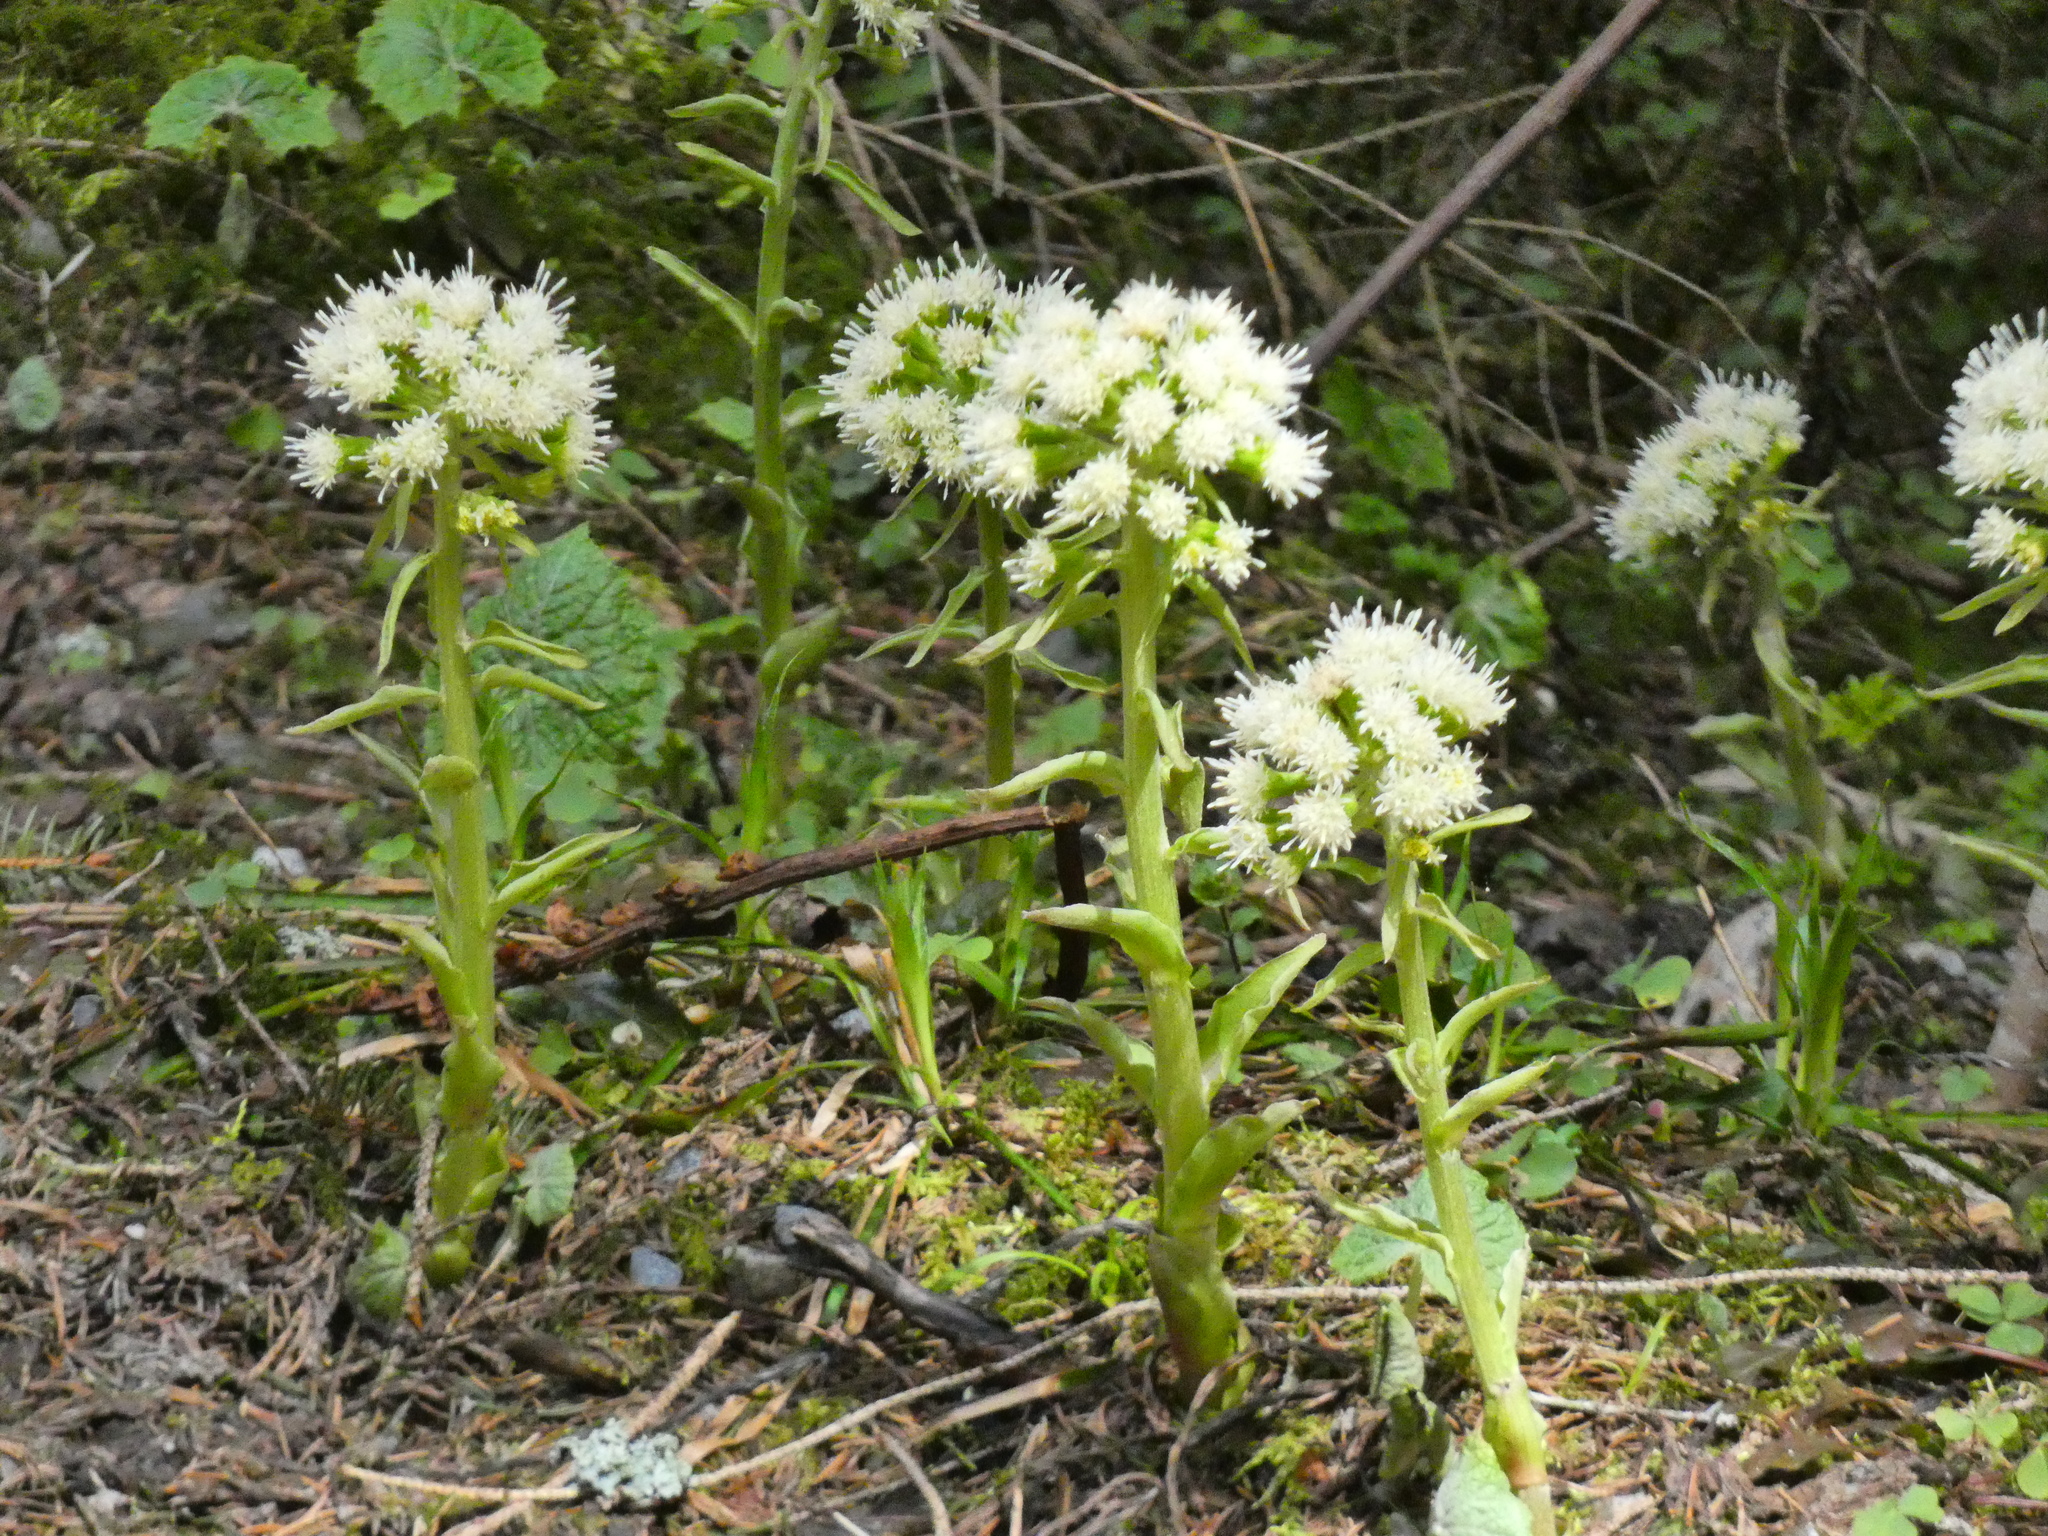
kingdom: Plantae
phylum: Tracheophyta
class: Magnoliopsida
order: Asterales
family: Asteraceae
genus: Petasites
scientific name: Petasites albus
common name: White butterbur
